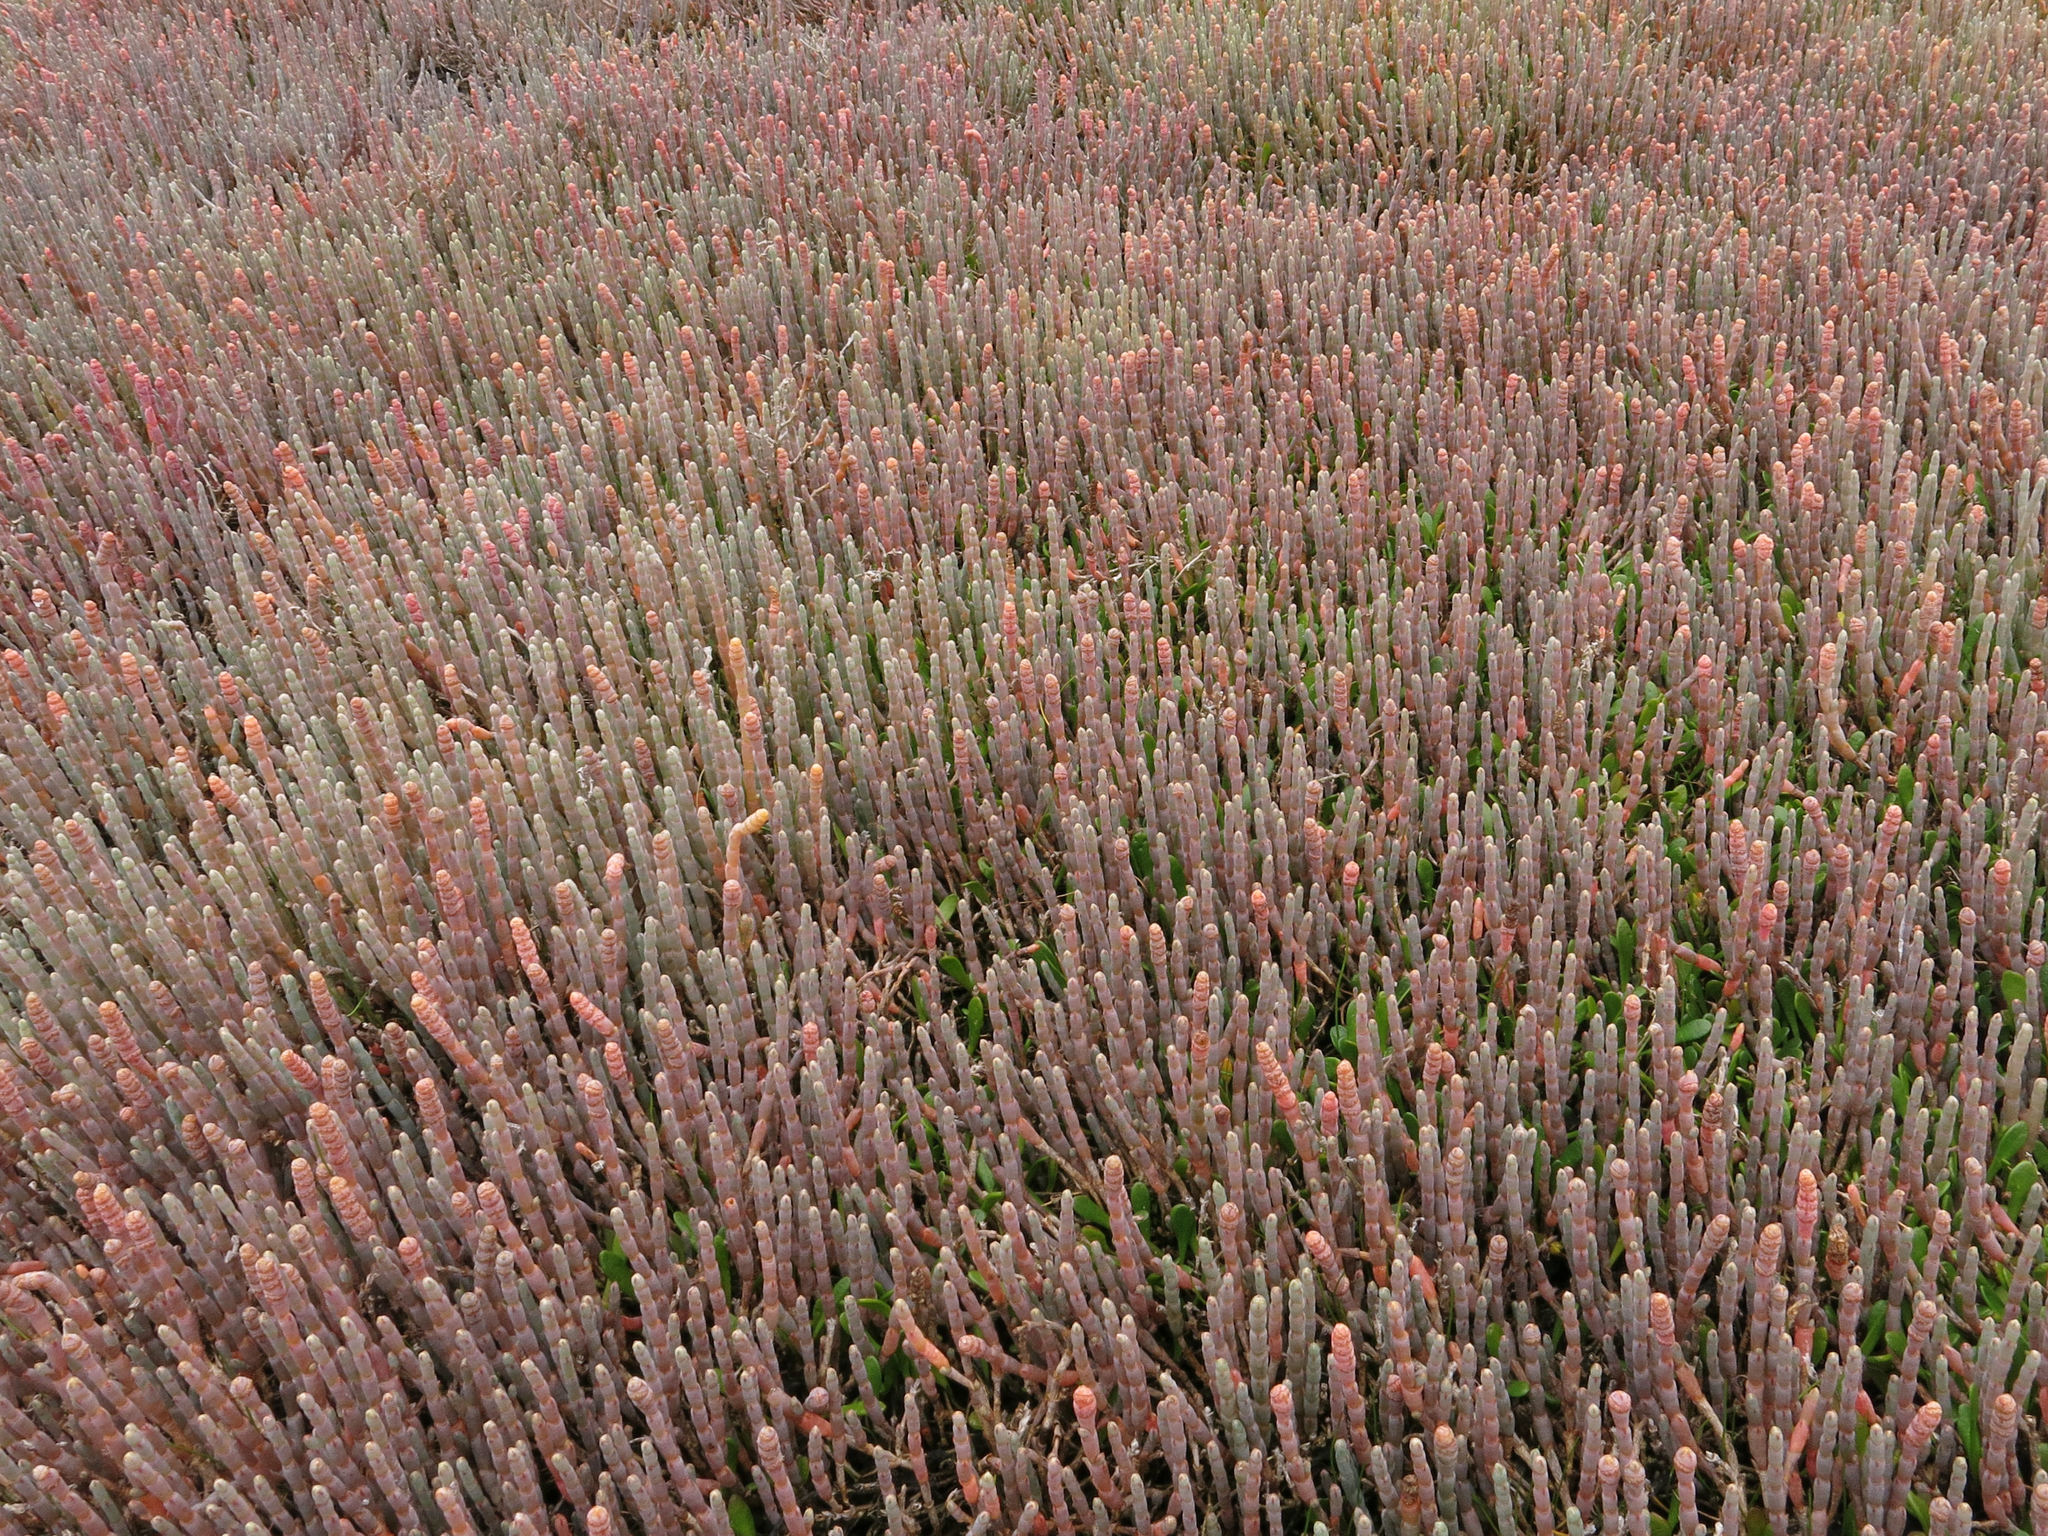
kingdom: Plantae
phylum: Tracheophyta
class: Magnoliopsida
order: Caryophyllales
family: Amaranthaceae
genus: Salicornia
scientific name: Salicornia quinqueflora
